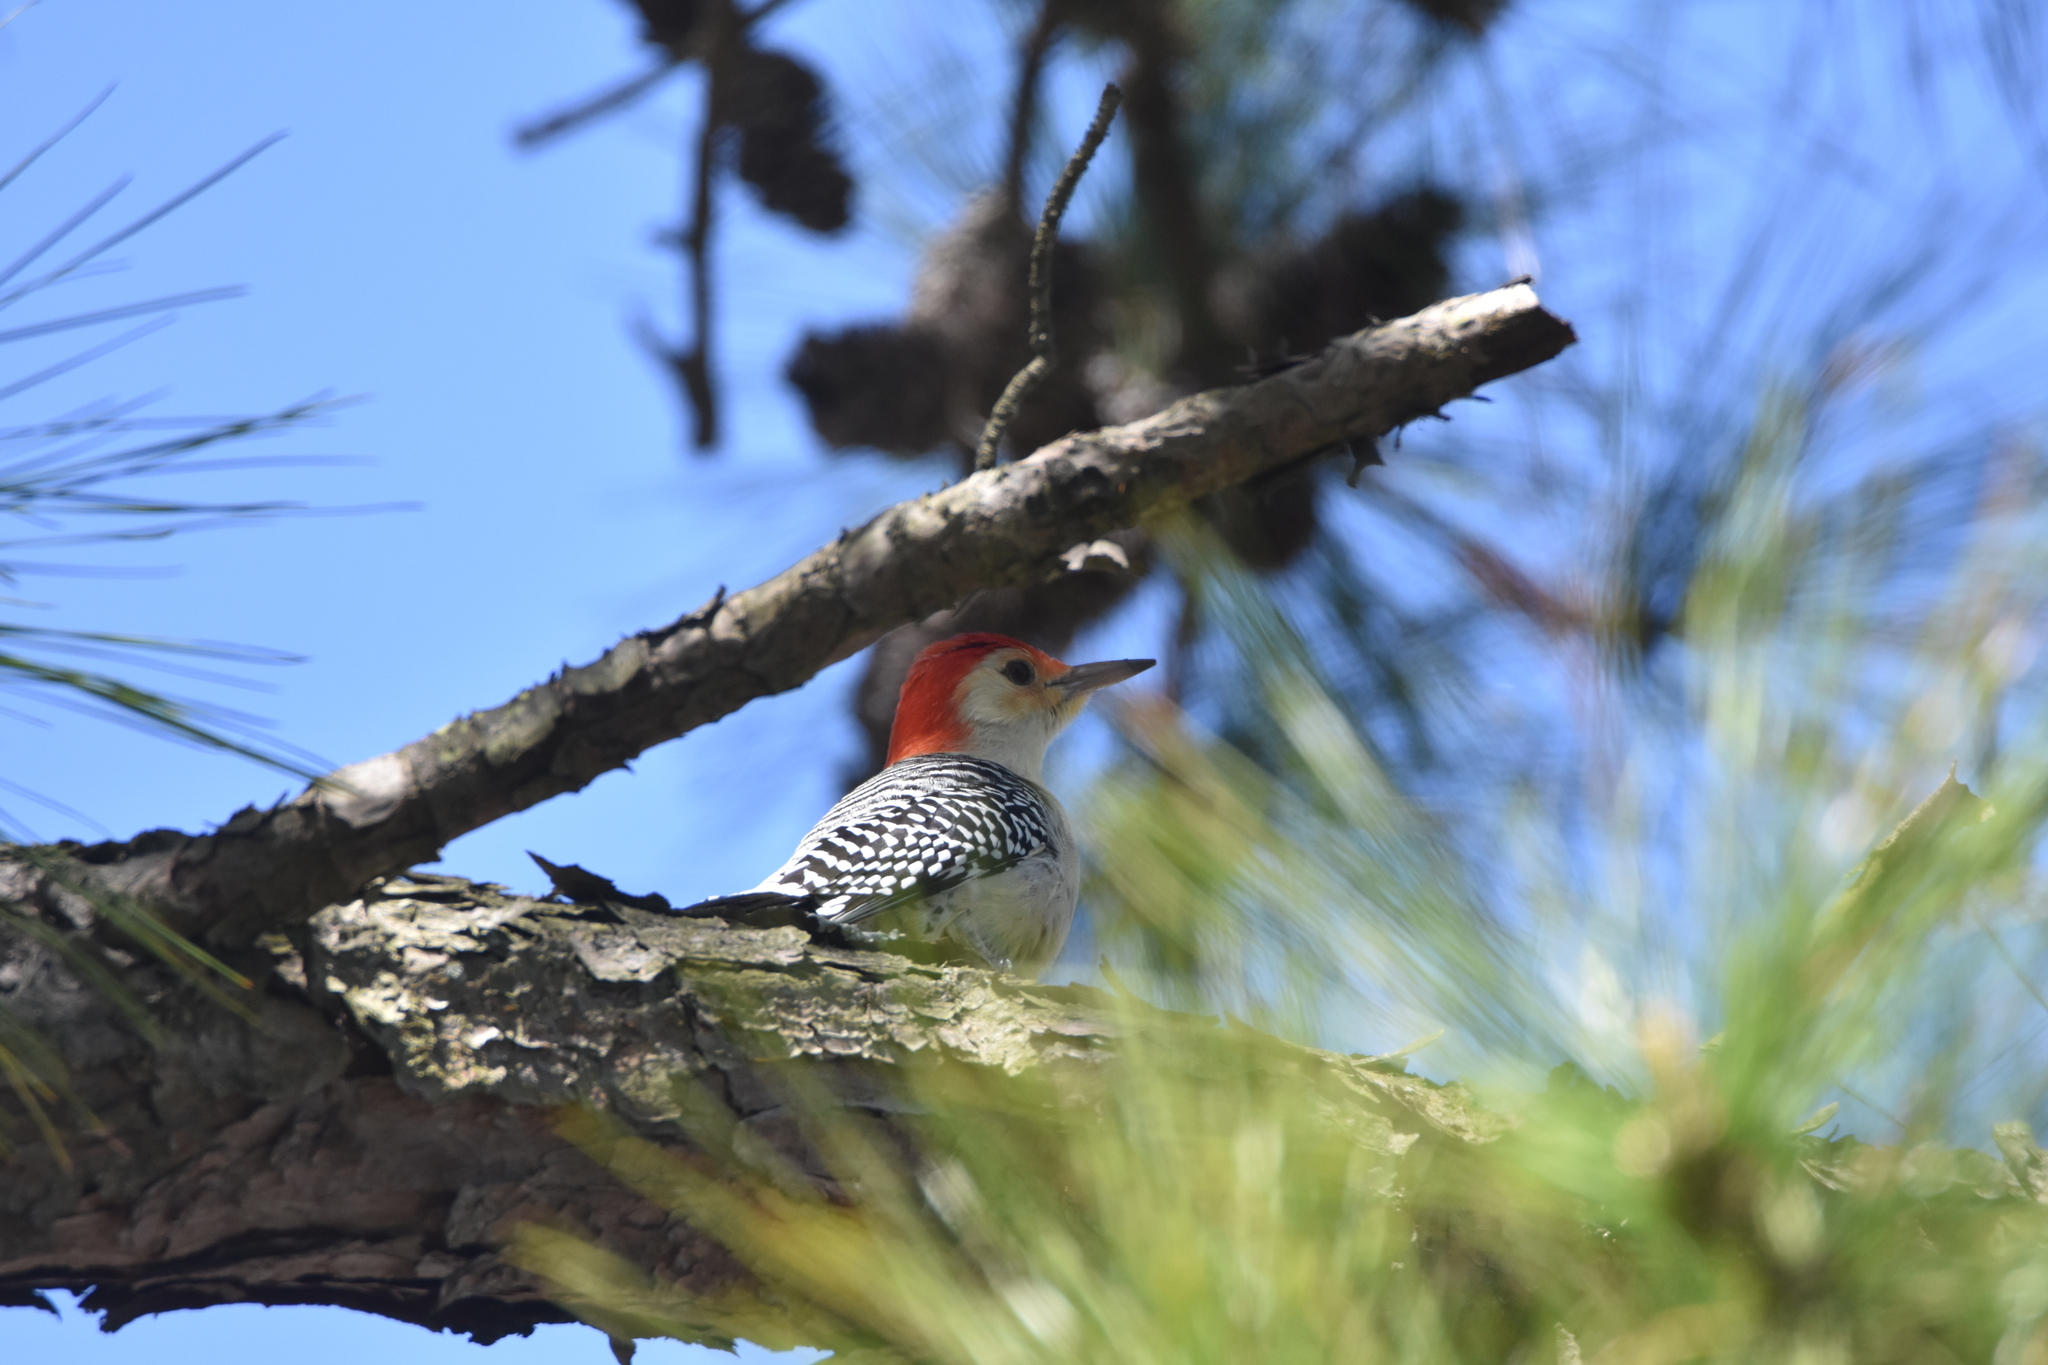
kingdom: Animalia
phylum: Chordata
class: Aves
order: Piciformes
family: Picidae
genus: Melanerpes
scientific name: Melanerpes carolinus
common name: Red-bellied woodpecker
